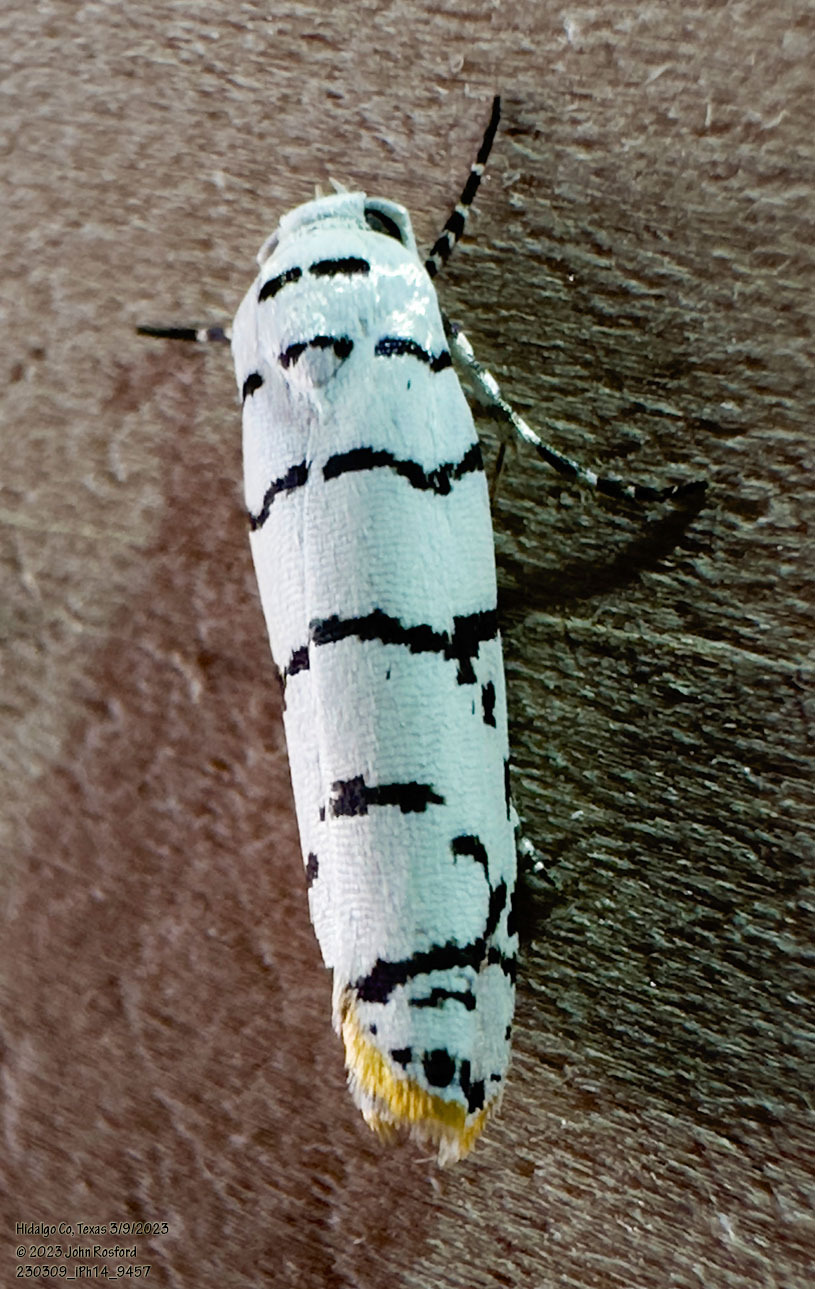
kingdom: Animalia
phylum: Arthropoda
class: Insecta
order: Lepidoptera
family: Ethmiidae
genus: Ethmia
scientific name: Ethmia delliella
